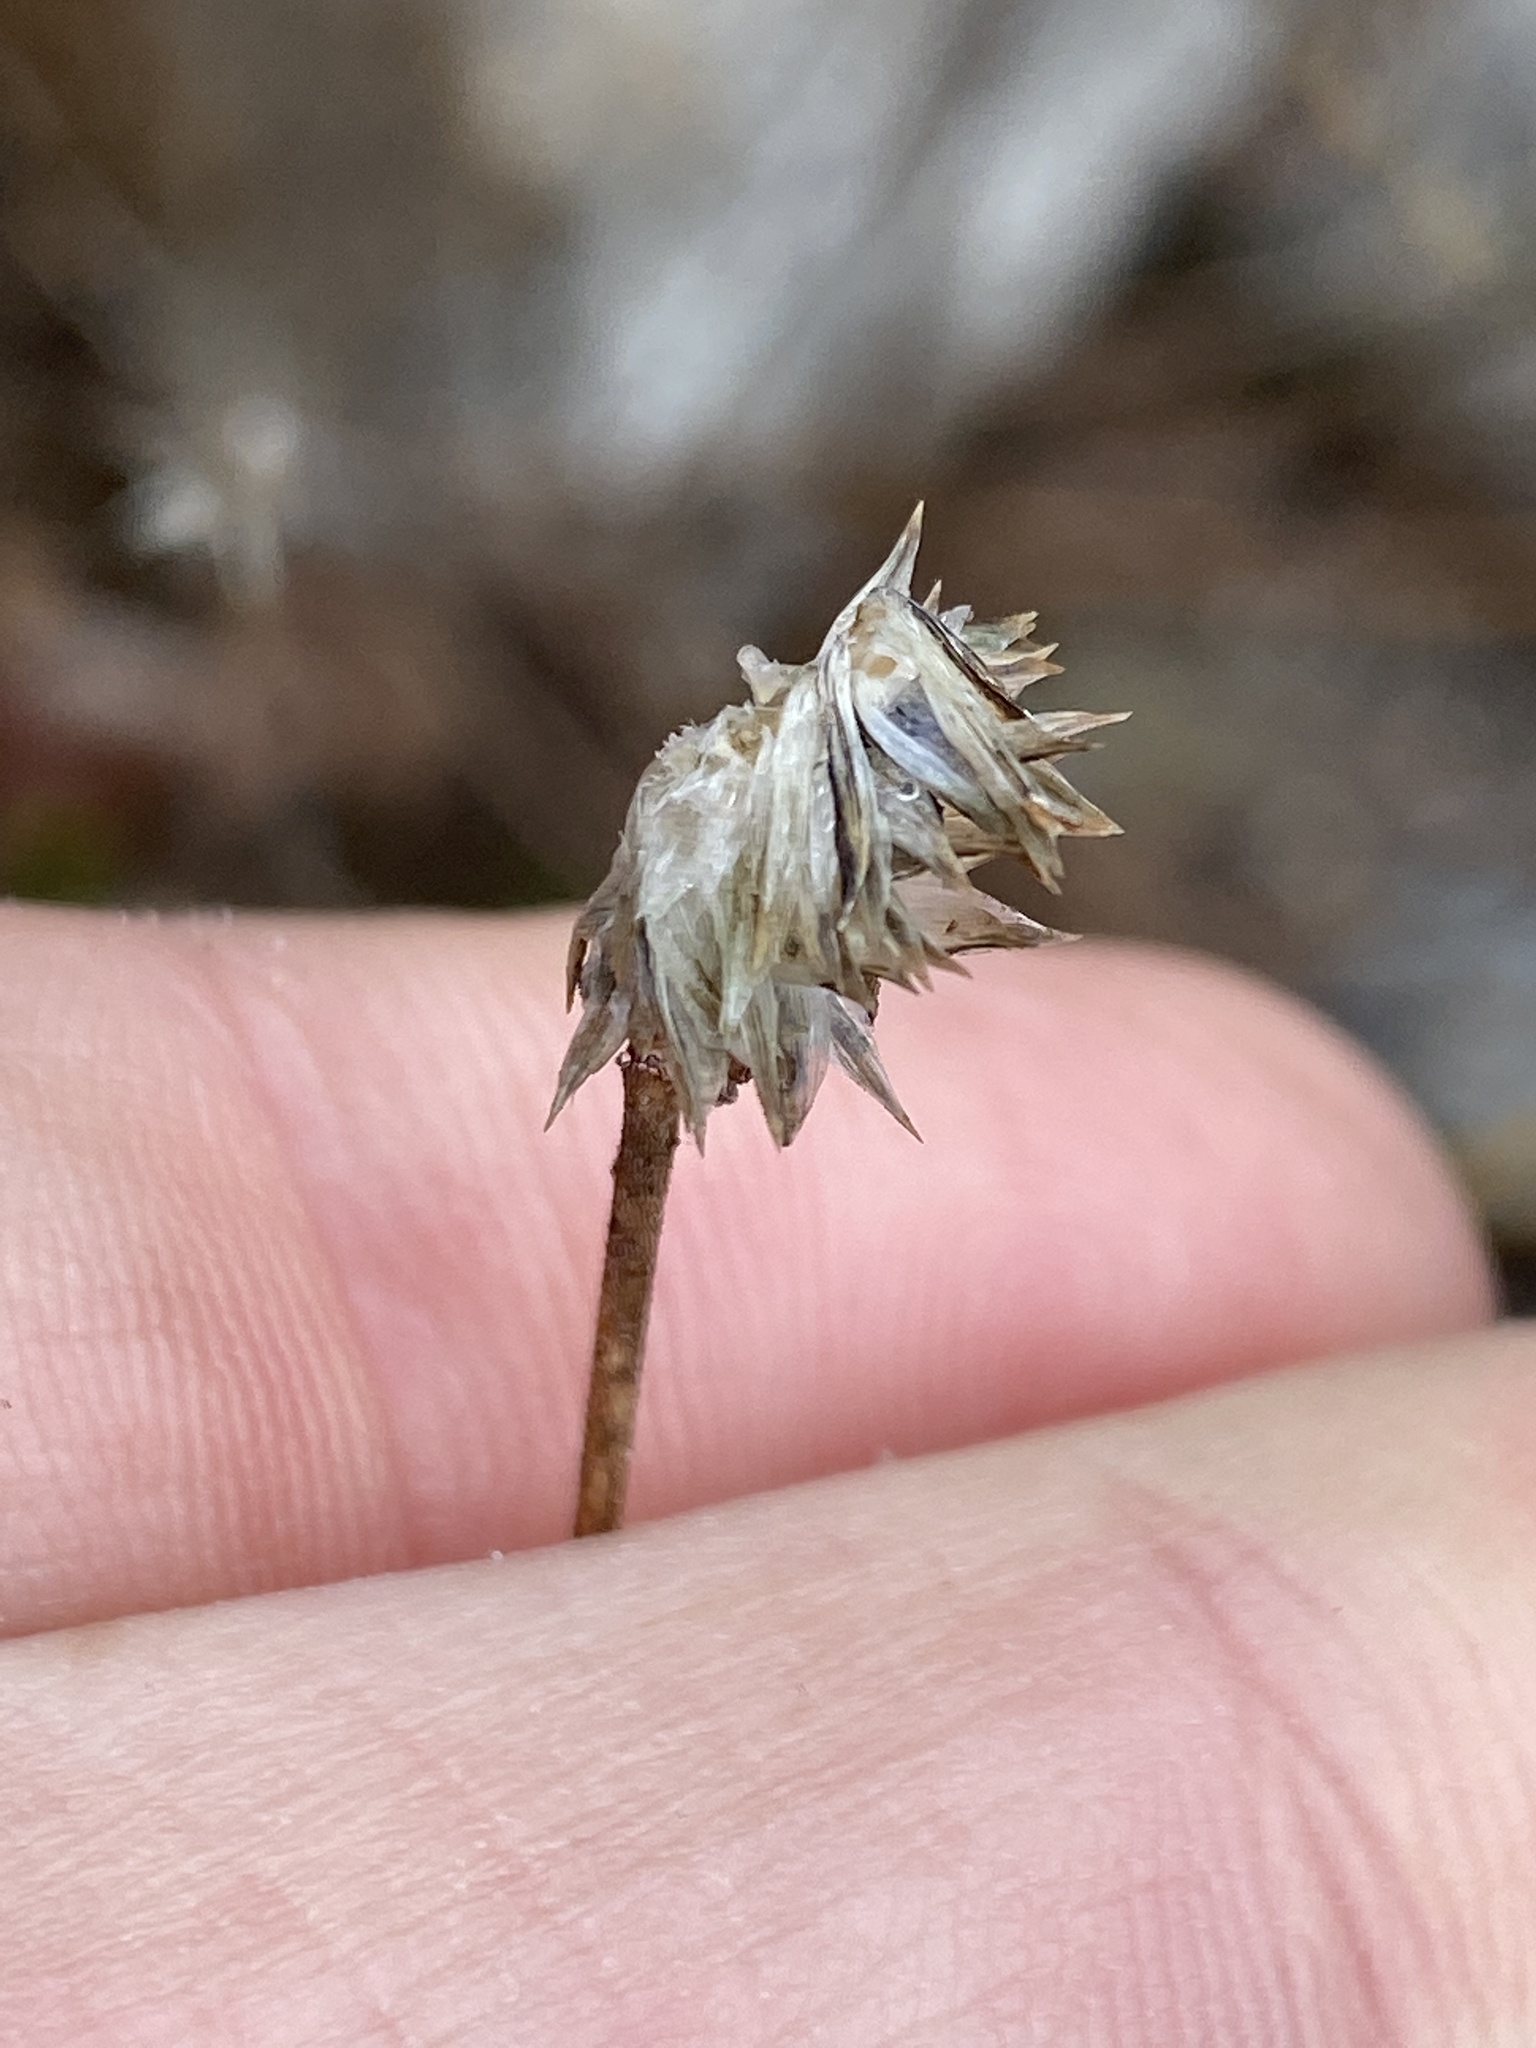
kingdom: Plantae
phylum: Tracheophyta
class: Magnoliopsida
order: Asterales
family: Asteraceae
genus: Helianthus
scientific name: Helianthus porteri
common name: Porter's sunflower
